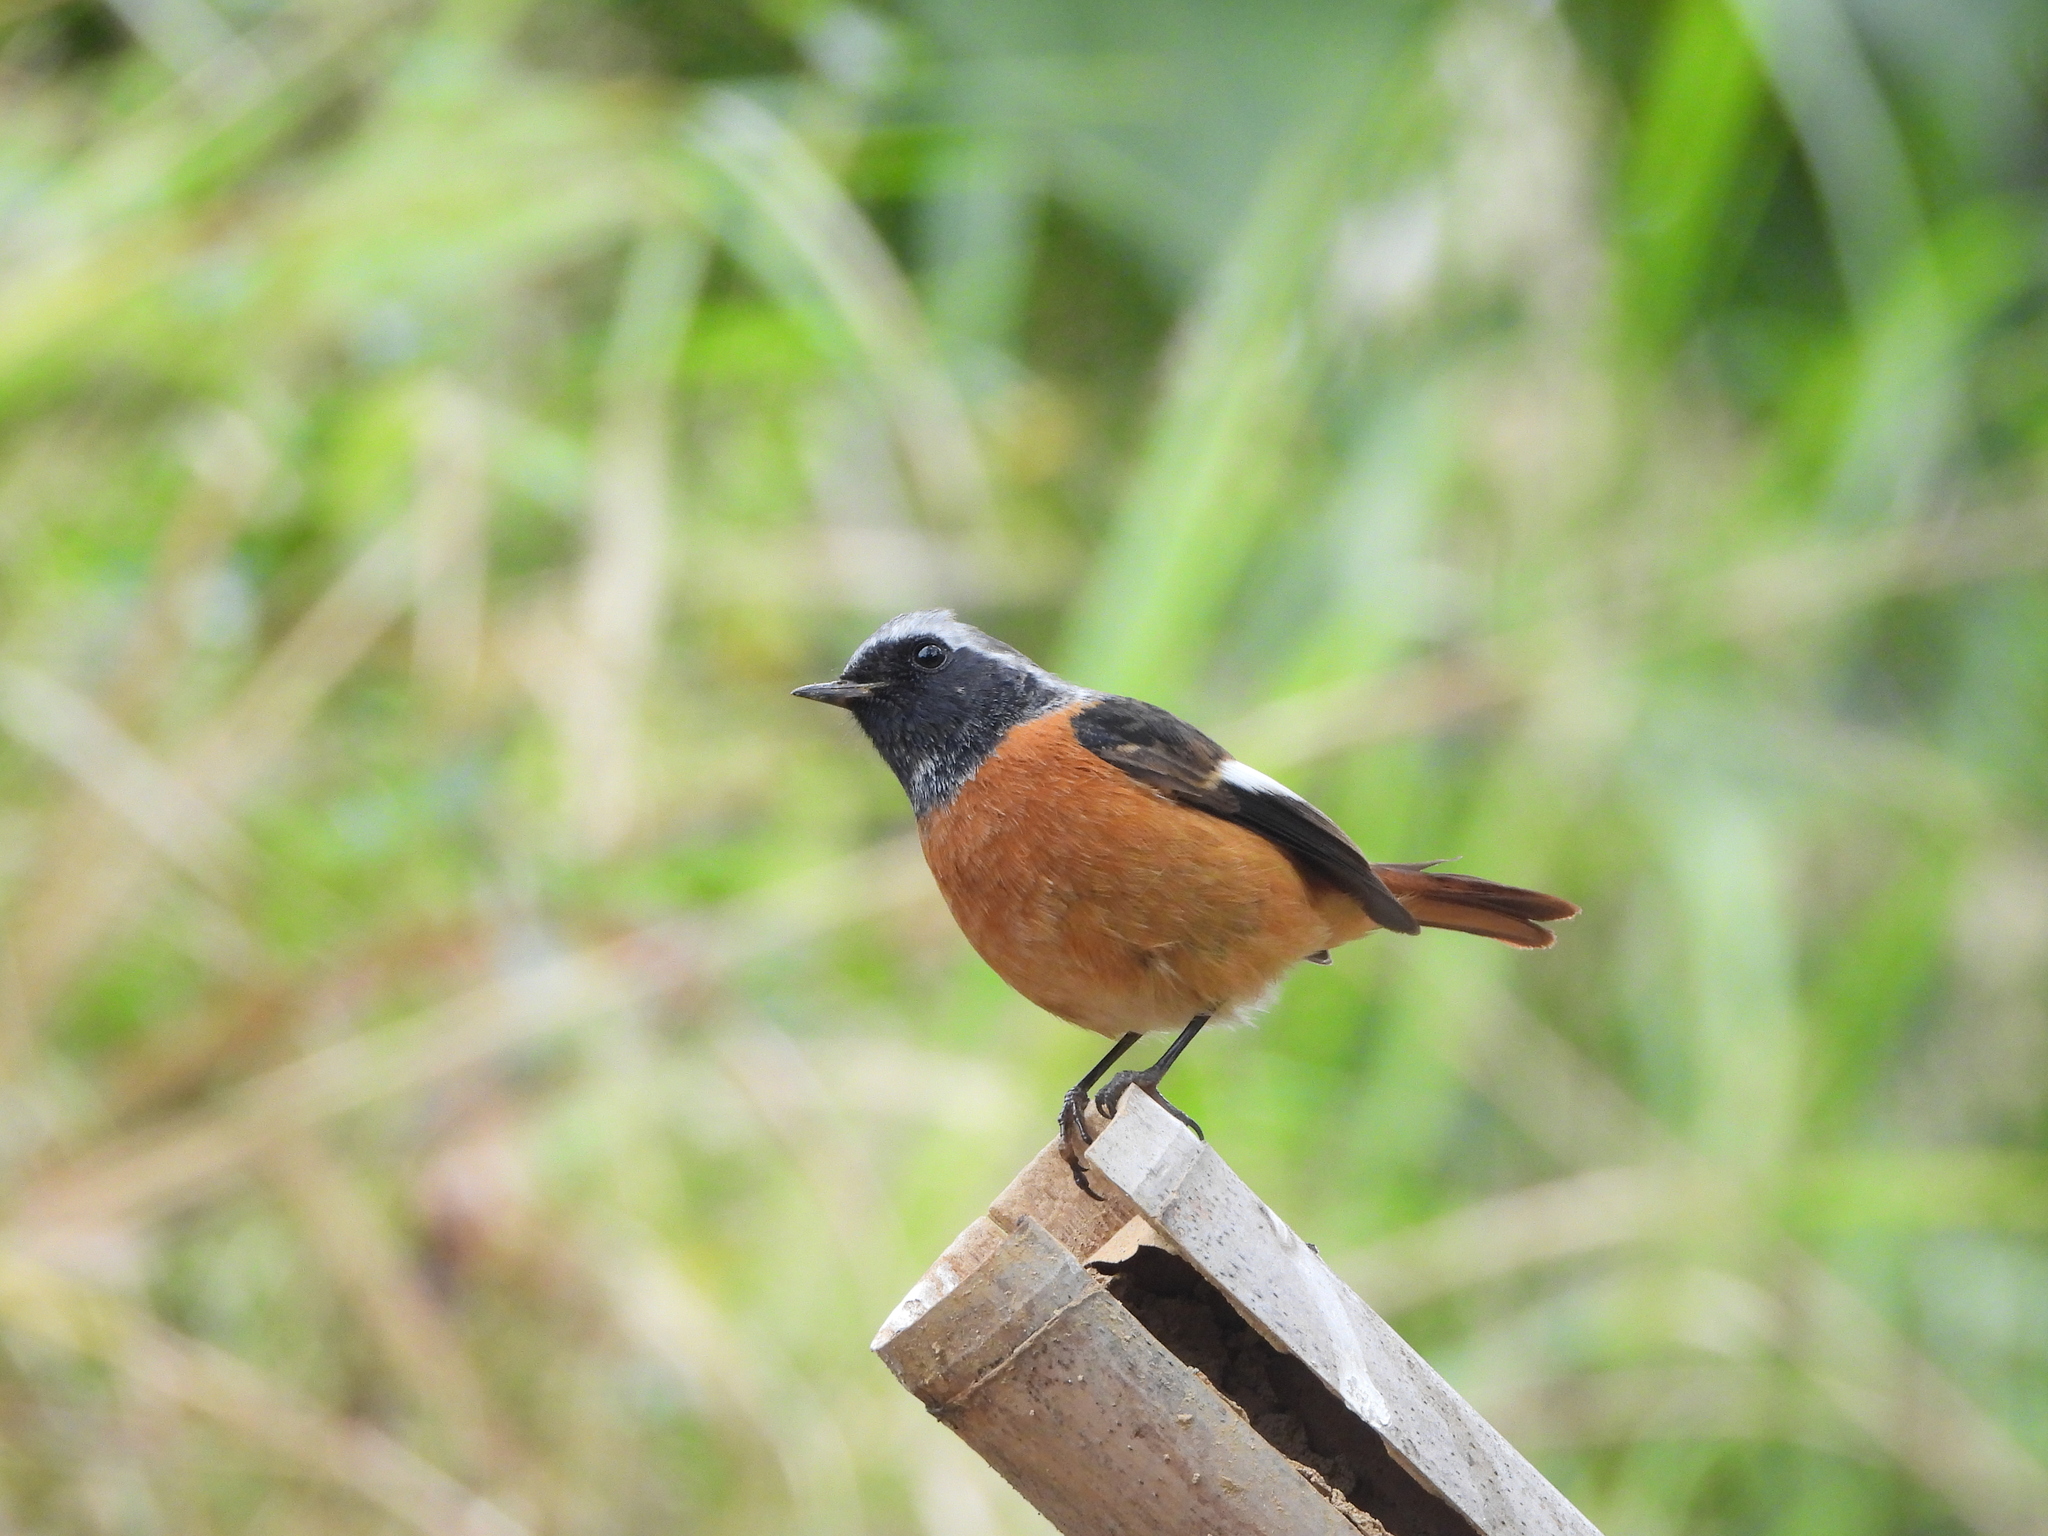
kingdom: Animalia
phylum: Chordata
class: Aves
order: Passeriformes
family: Muscicapidae
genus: Phoenicurus
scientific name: Phoenicurus auroreus
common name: Daurian redstart
